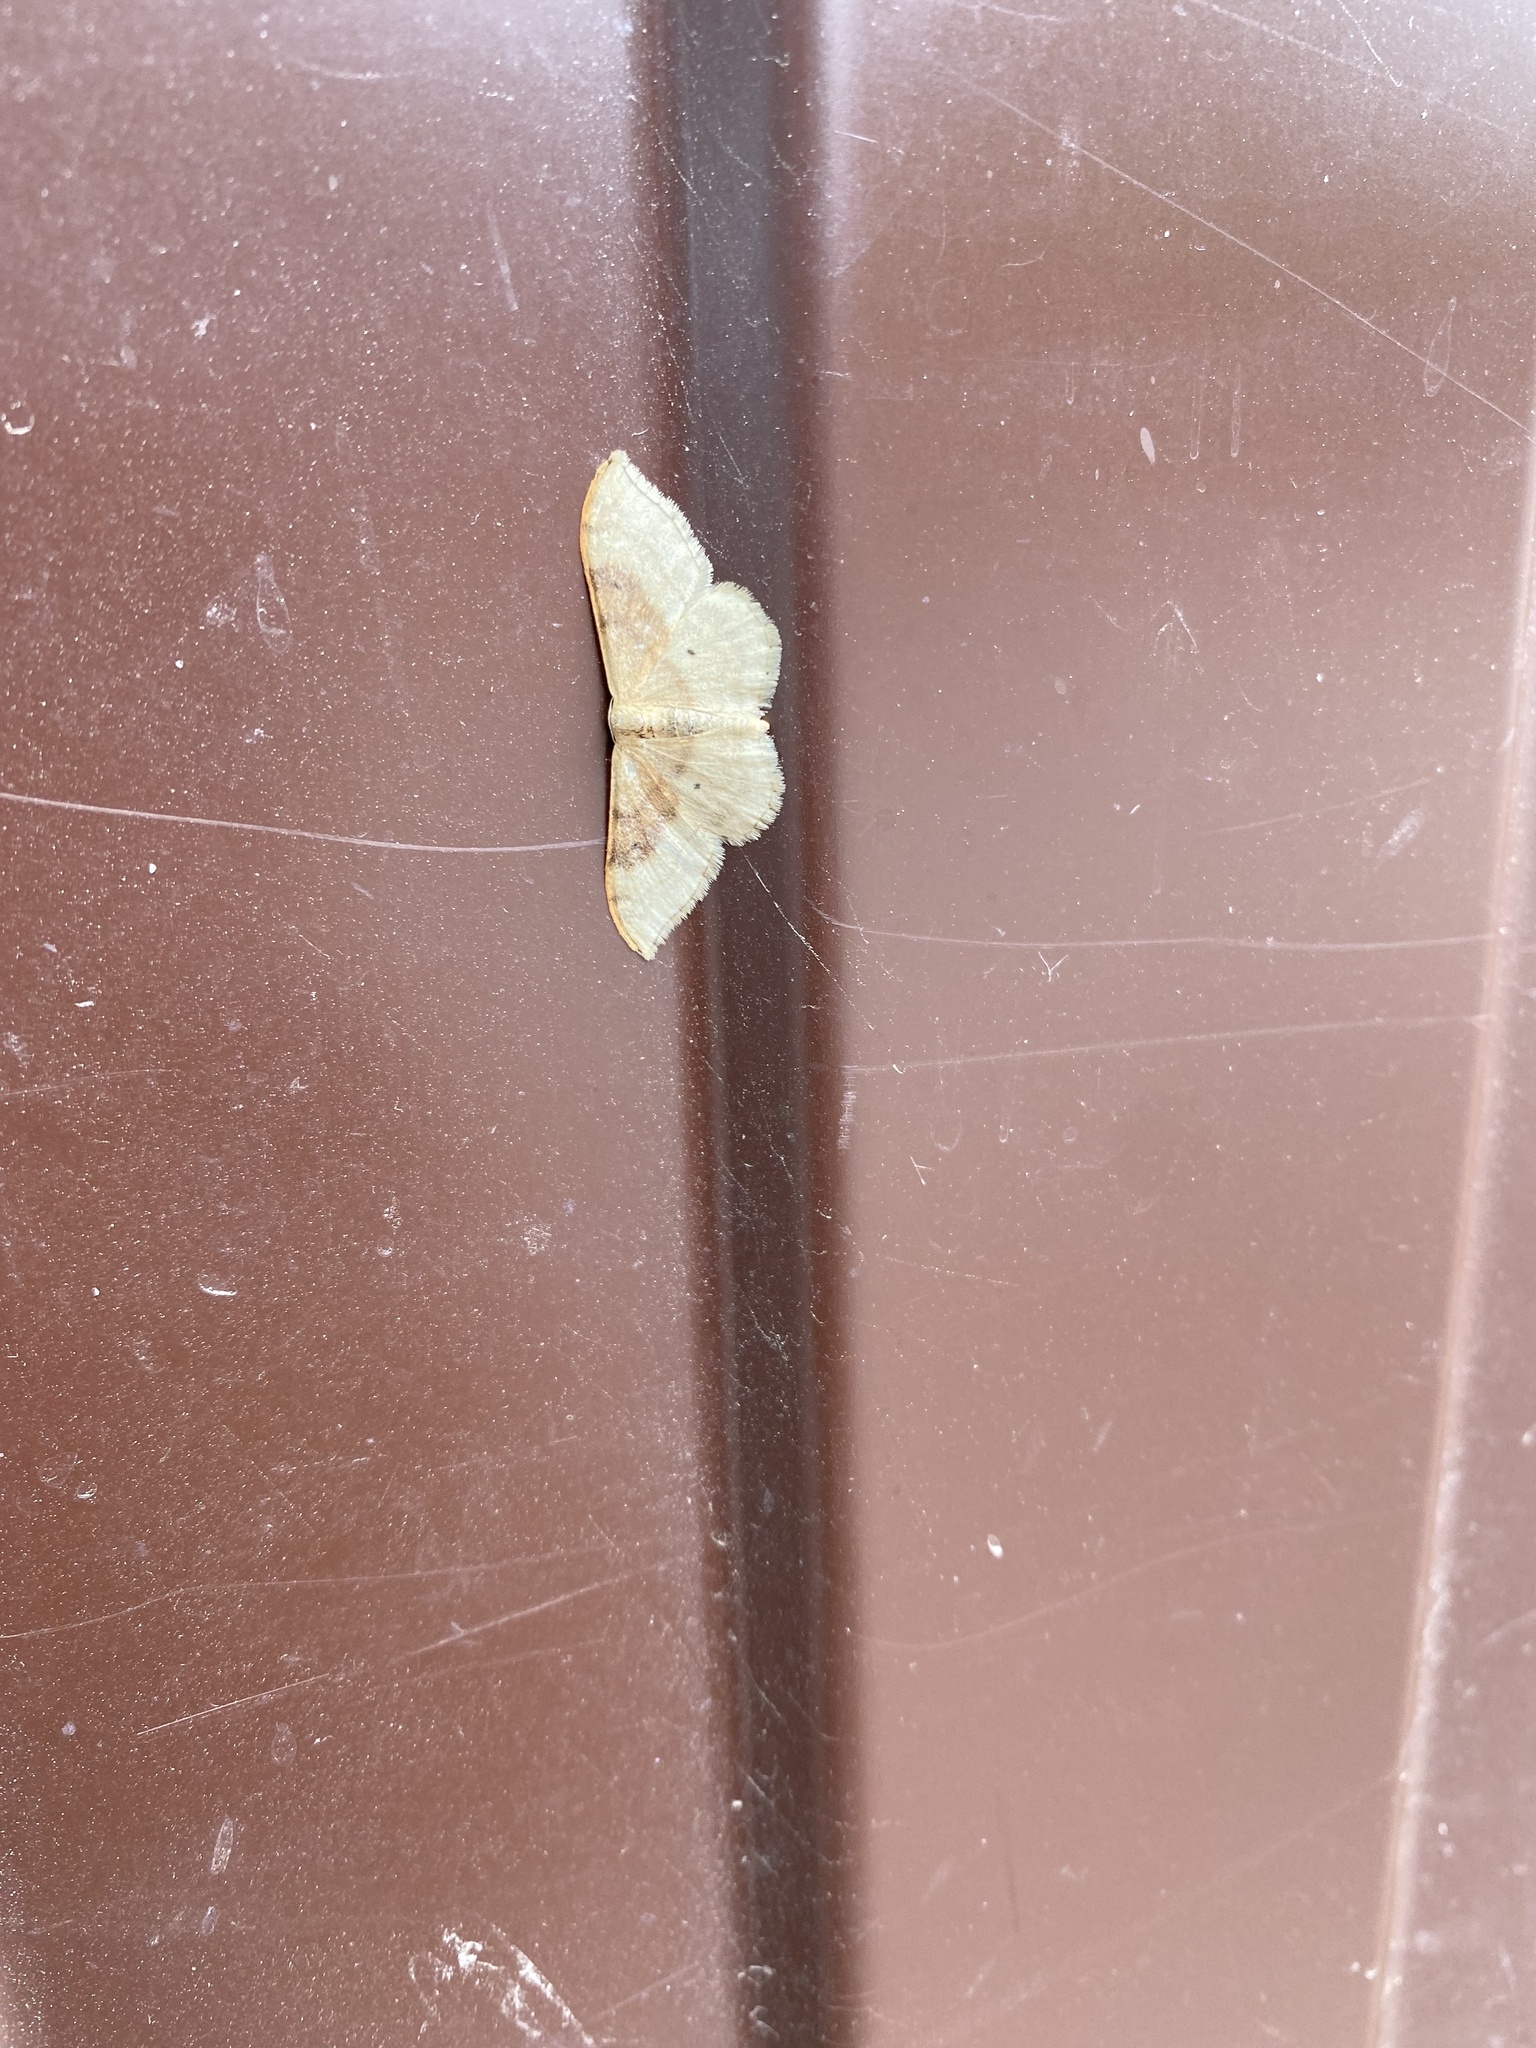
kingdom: Animalia
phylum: Arthropoda
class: Insecta
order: Lepidoptera
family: Geometridae
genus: Idaea
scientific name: Idaea degeneraria
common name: Portland ribbon wave
